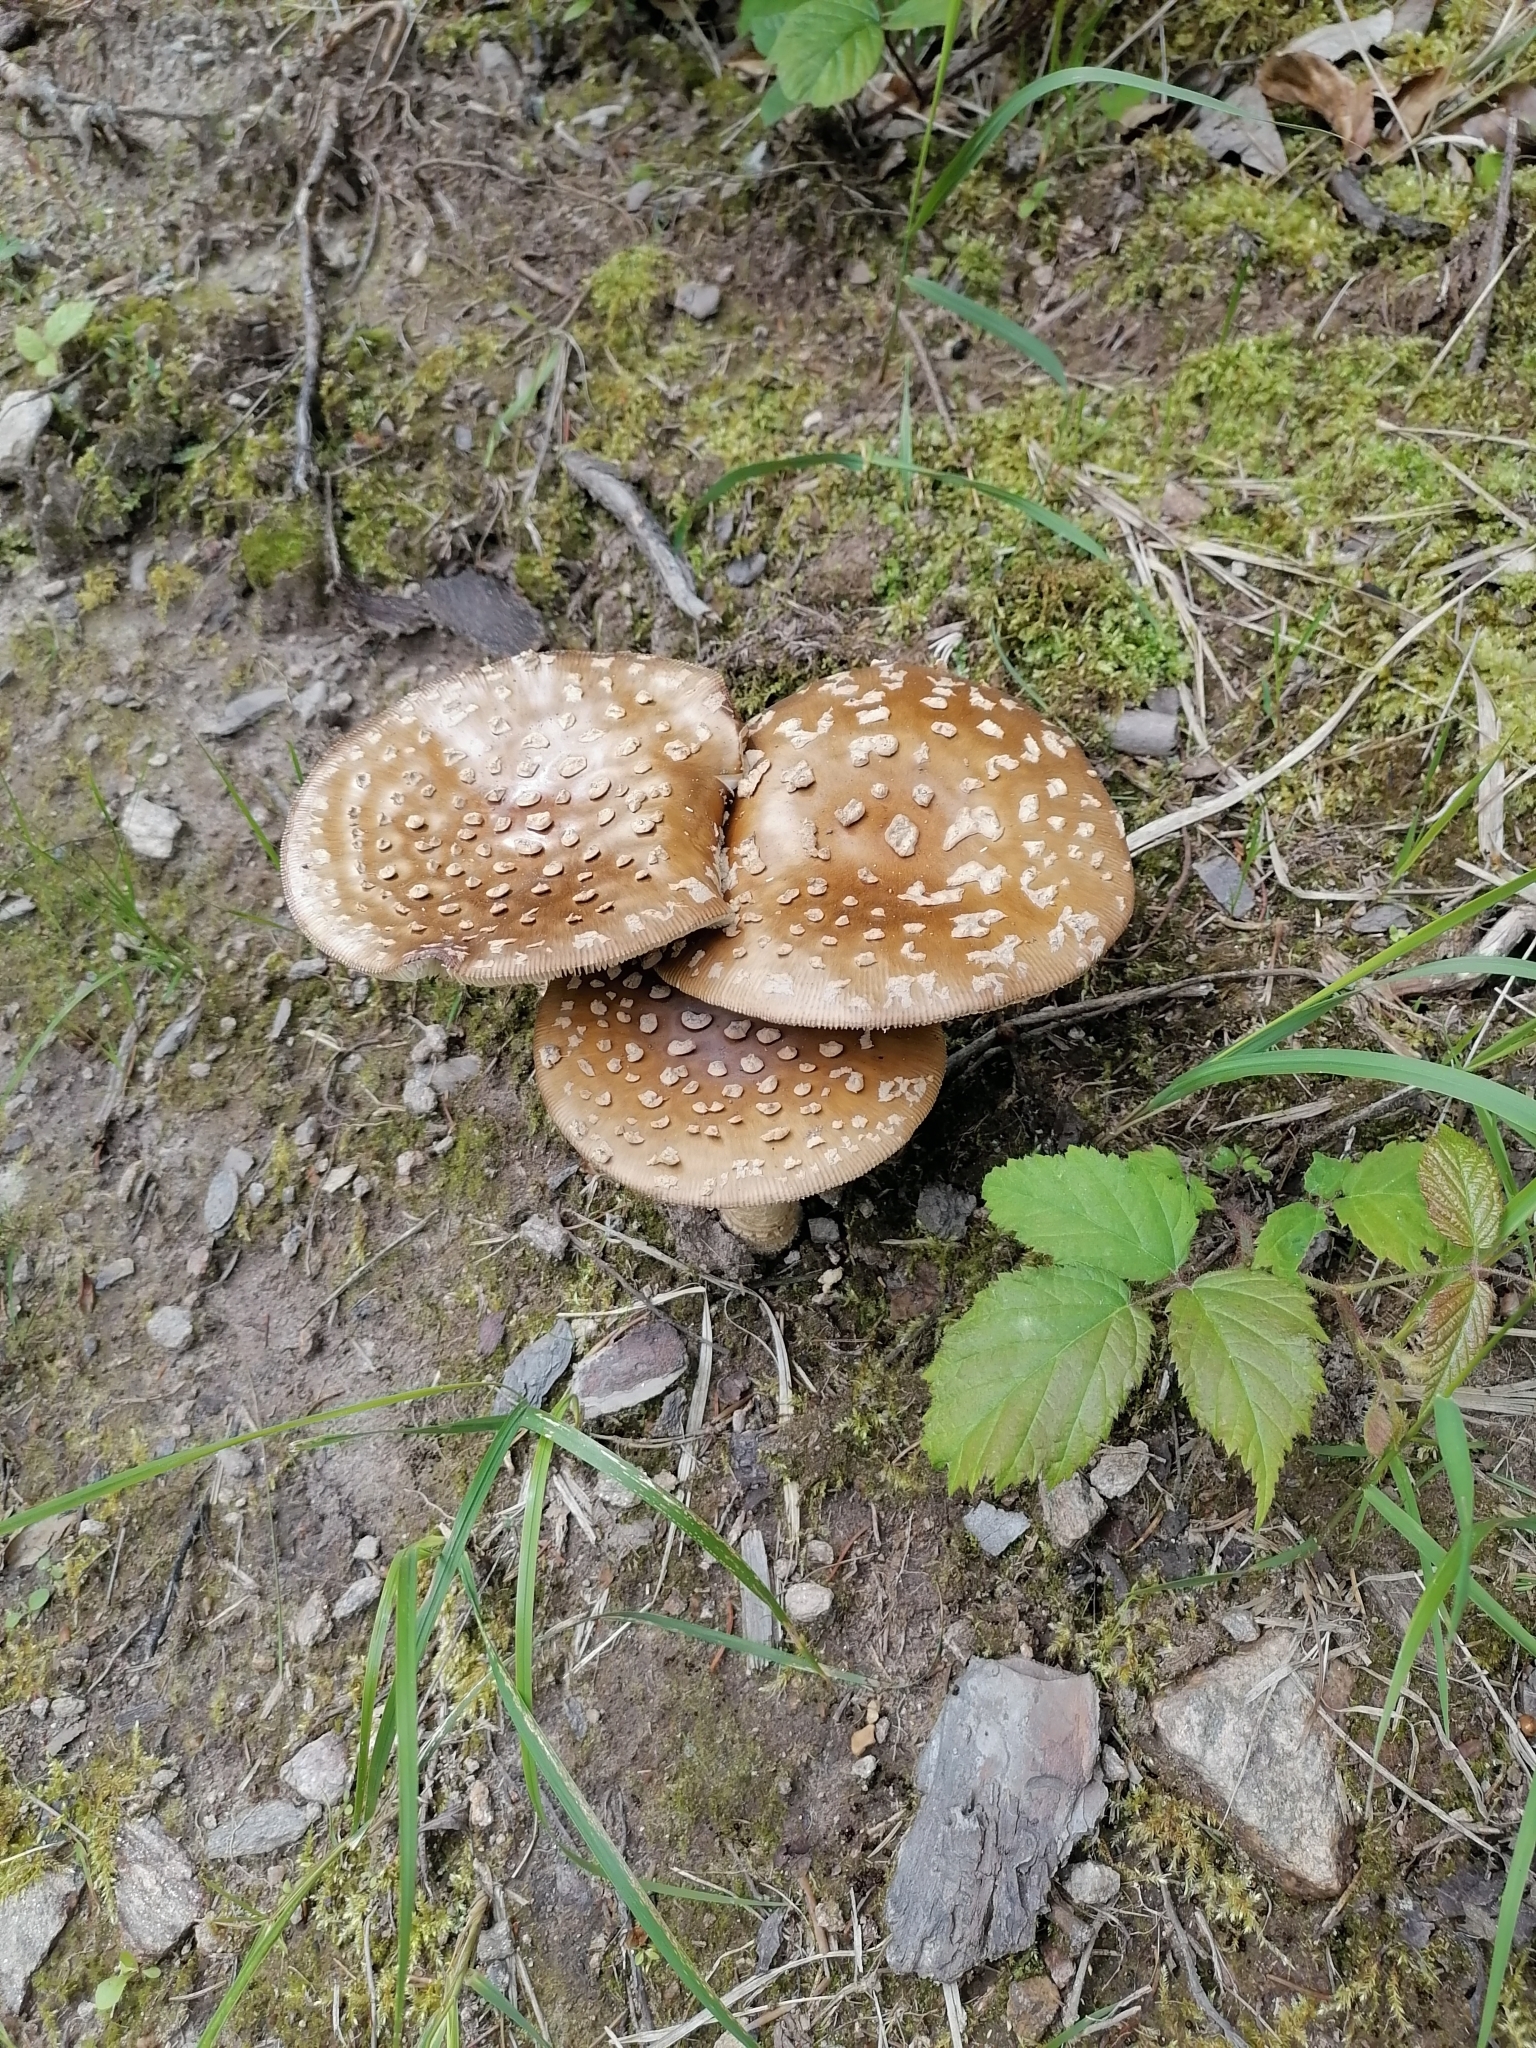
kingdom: Fungi
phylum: Basidiomycota
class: Agaricomycetes
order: Agaricales
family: Amanitaceae
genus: Amanita
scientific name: Amanita regalis
